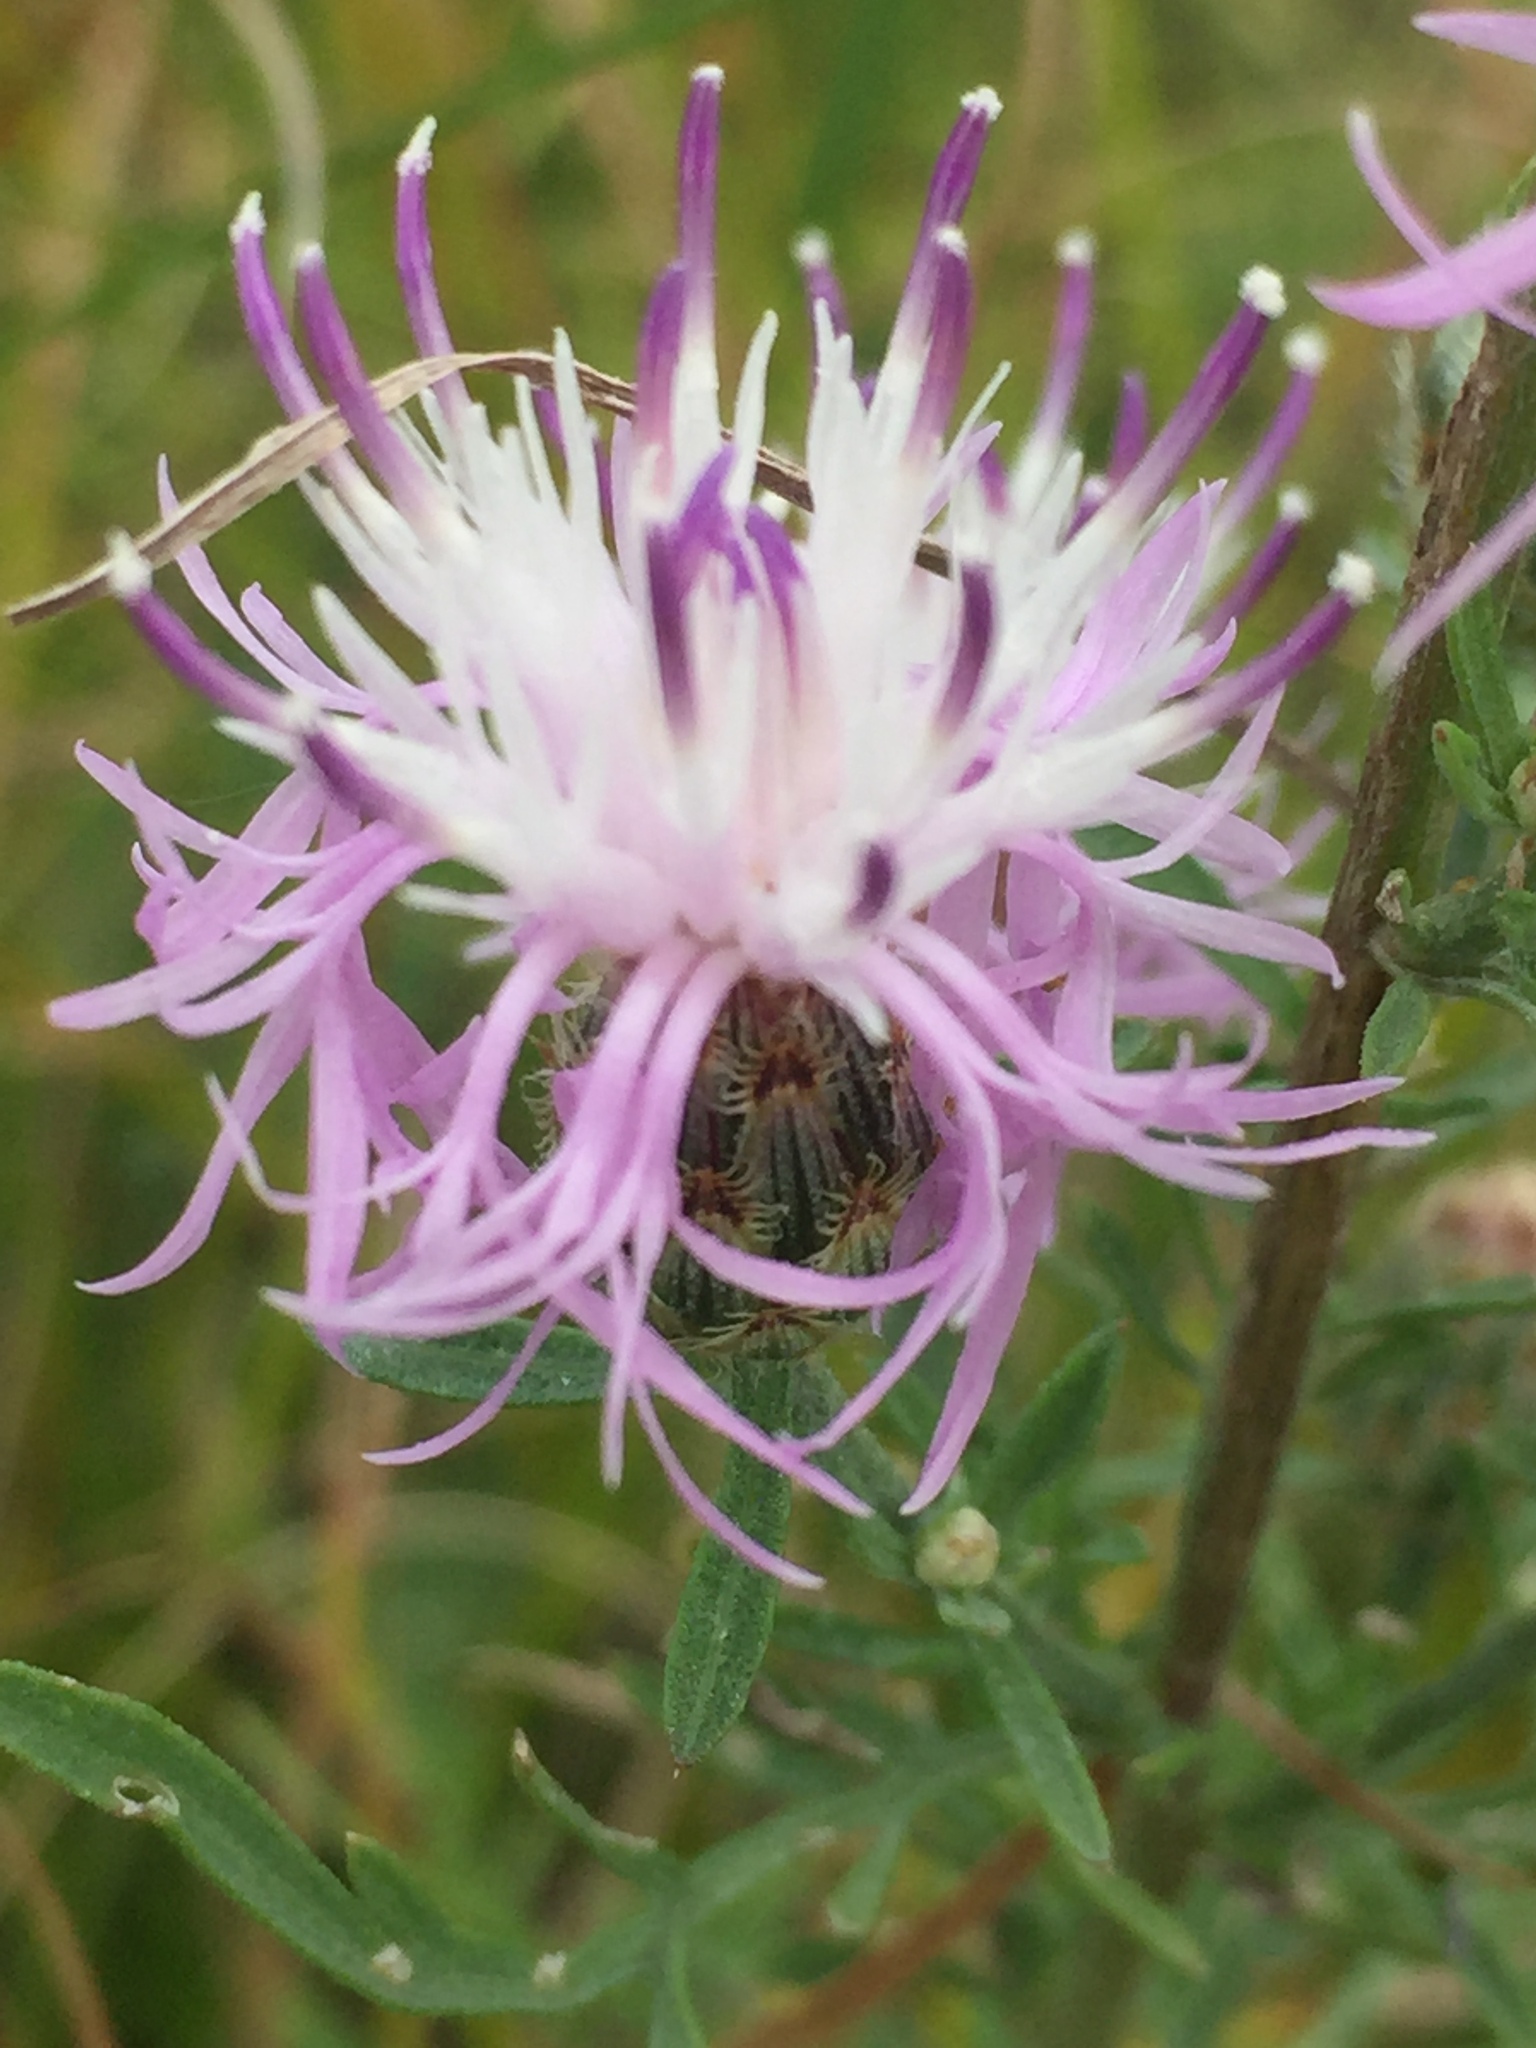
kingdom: Plantae
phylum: Tracheophyta
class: Magnoliopsida
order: Asterales
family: Asteraceae
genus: Centaurea
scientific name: Centaurea stoebe
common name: Spotted knapweed
